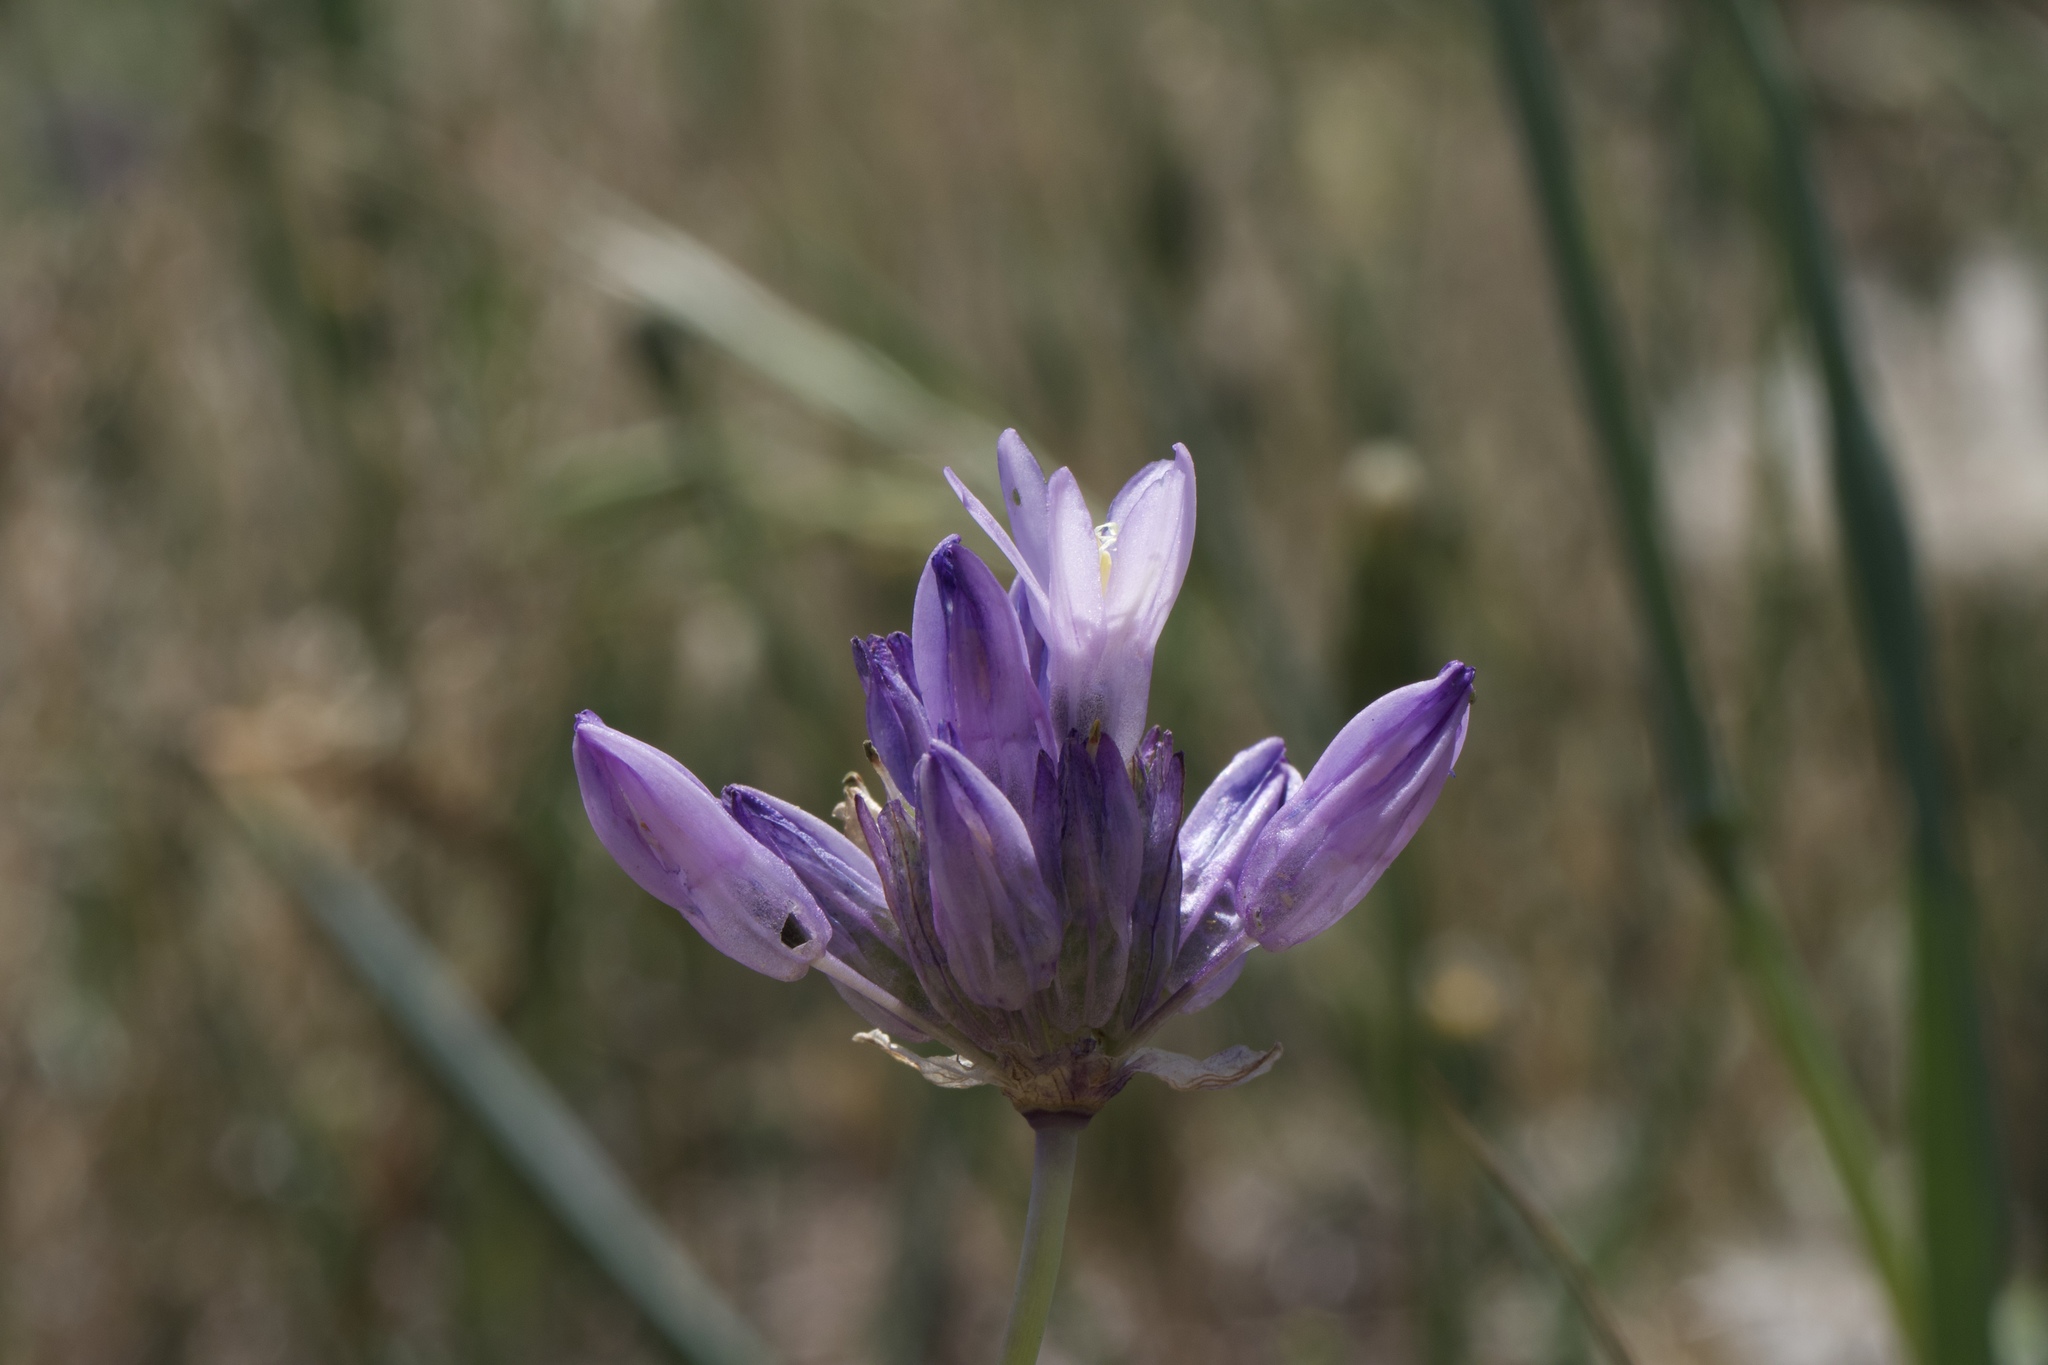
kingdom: Plantae
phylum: Tracheophyta
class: Liliopsida
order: Asparagales
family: Asparagaceae
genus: Dipterostemon
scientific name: Dipterostemon capitatus
